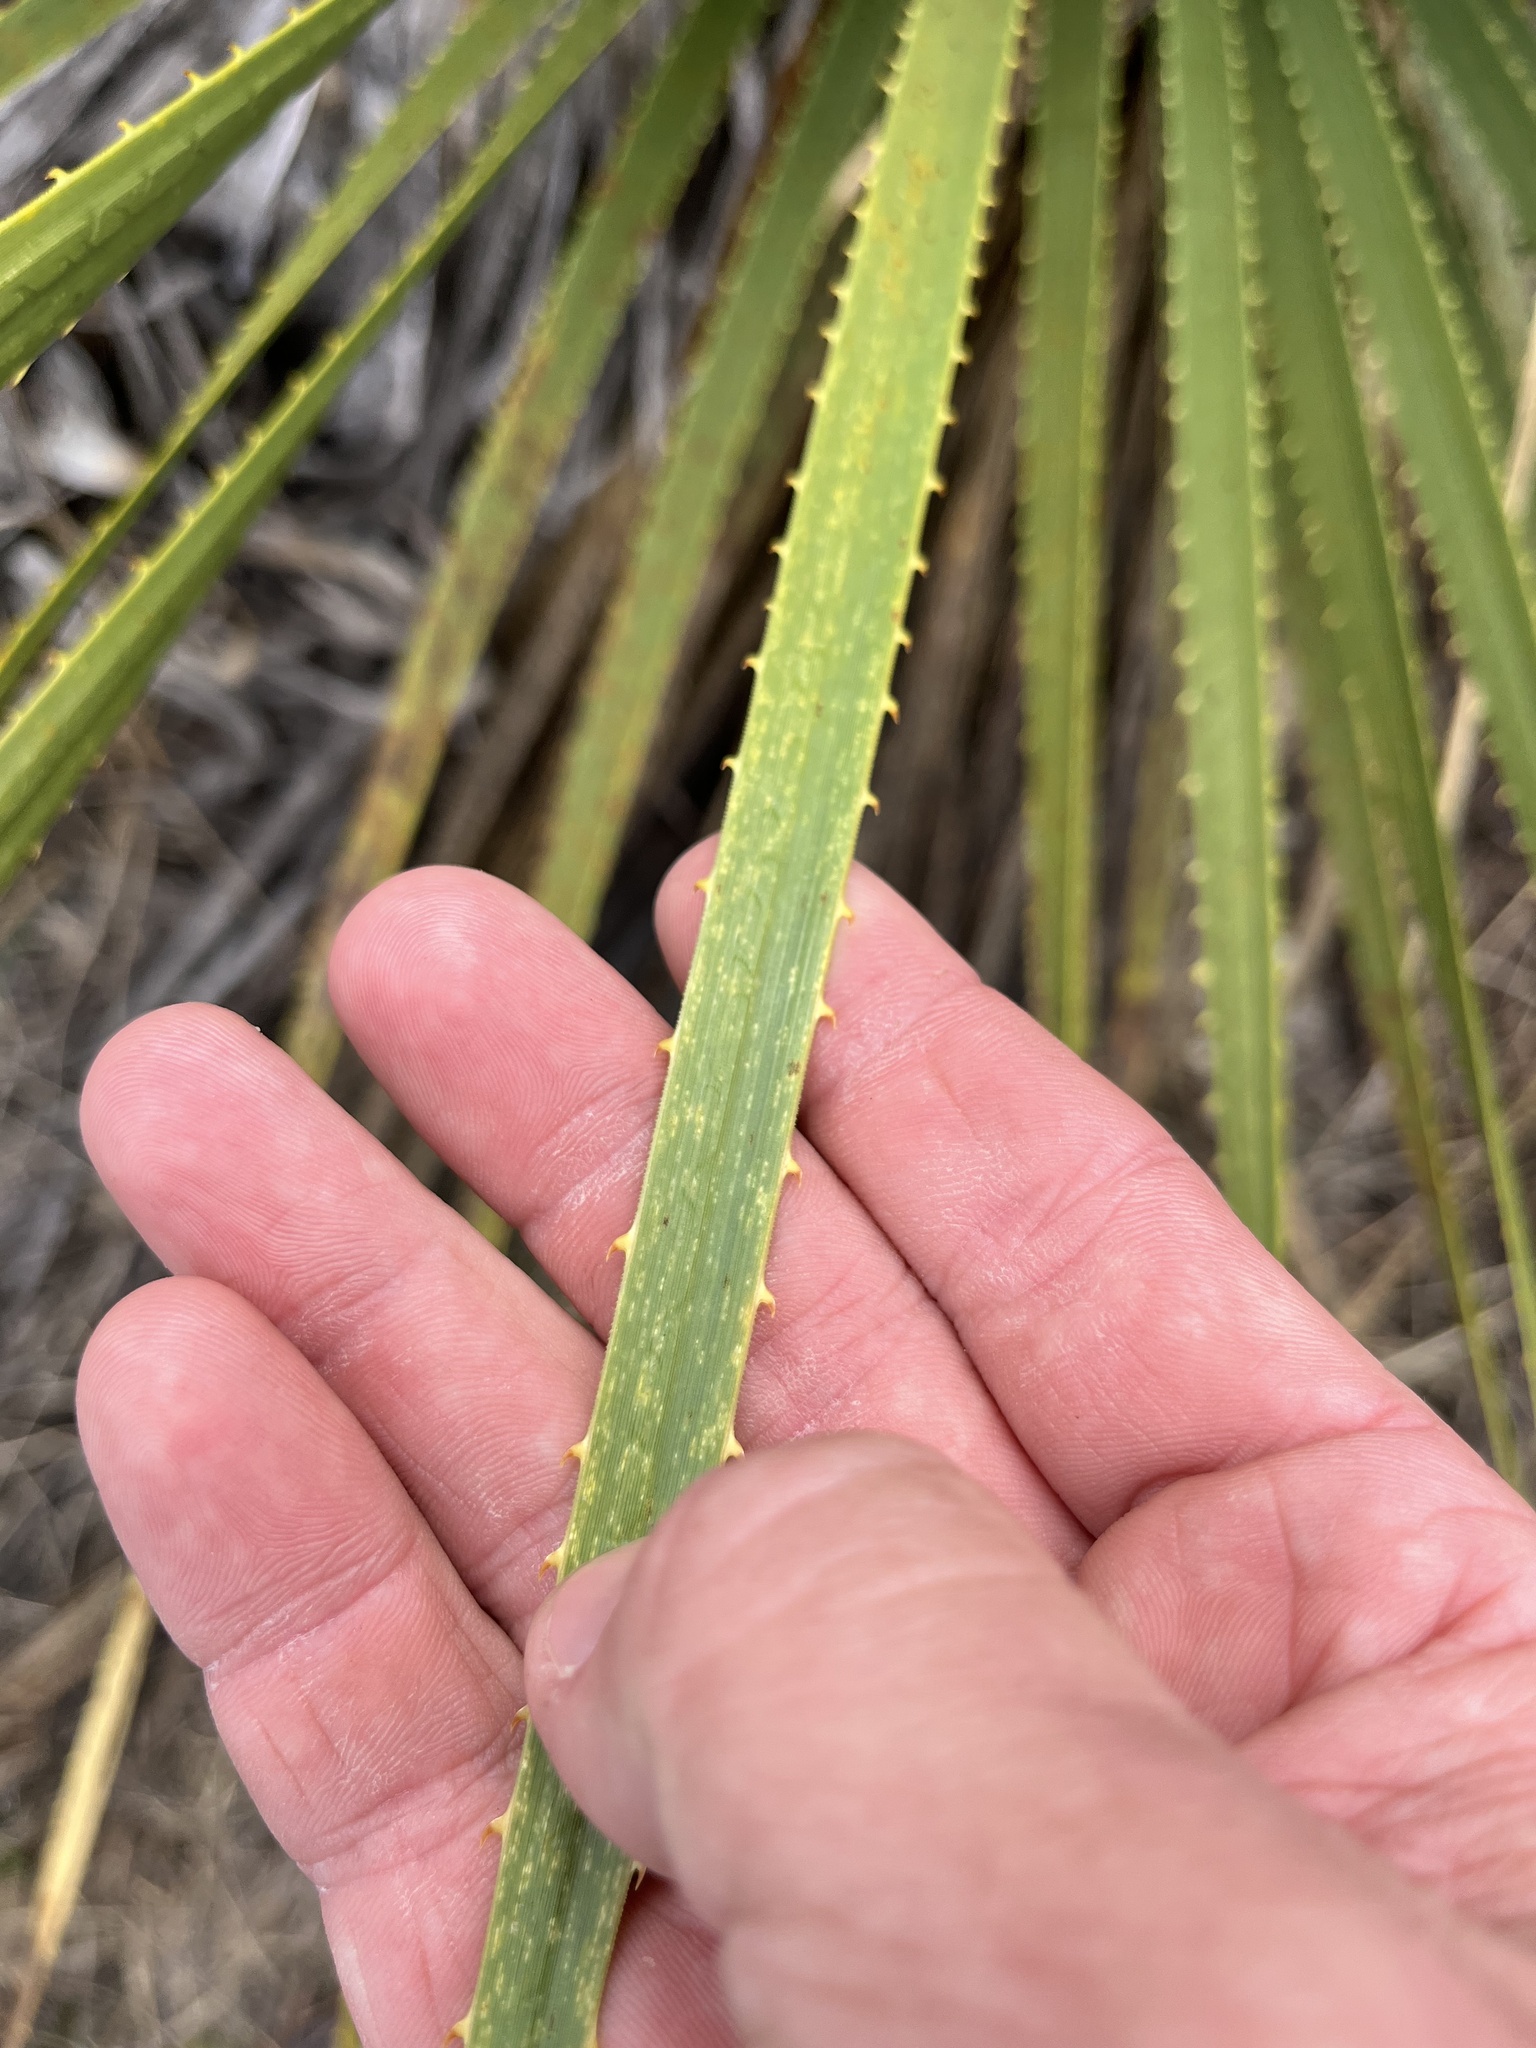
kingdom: Plantae
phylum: Tracheophyta
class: Liliopsida
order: Asparagales
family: Asparagaceae
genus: Dasylirion
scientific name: Dasylirion texanum
